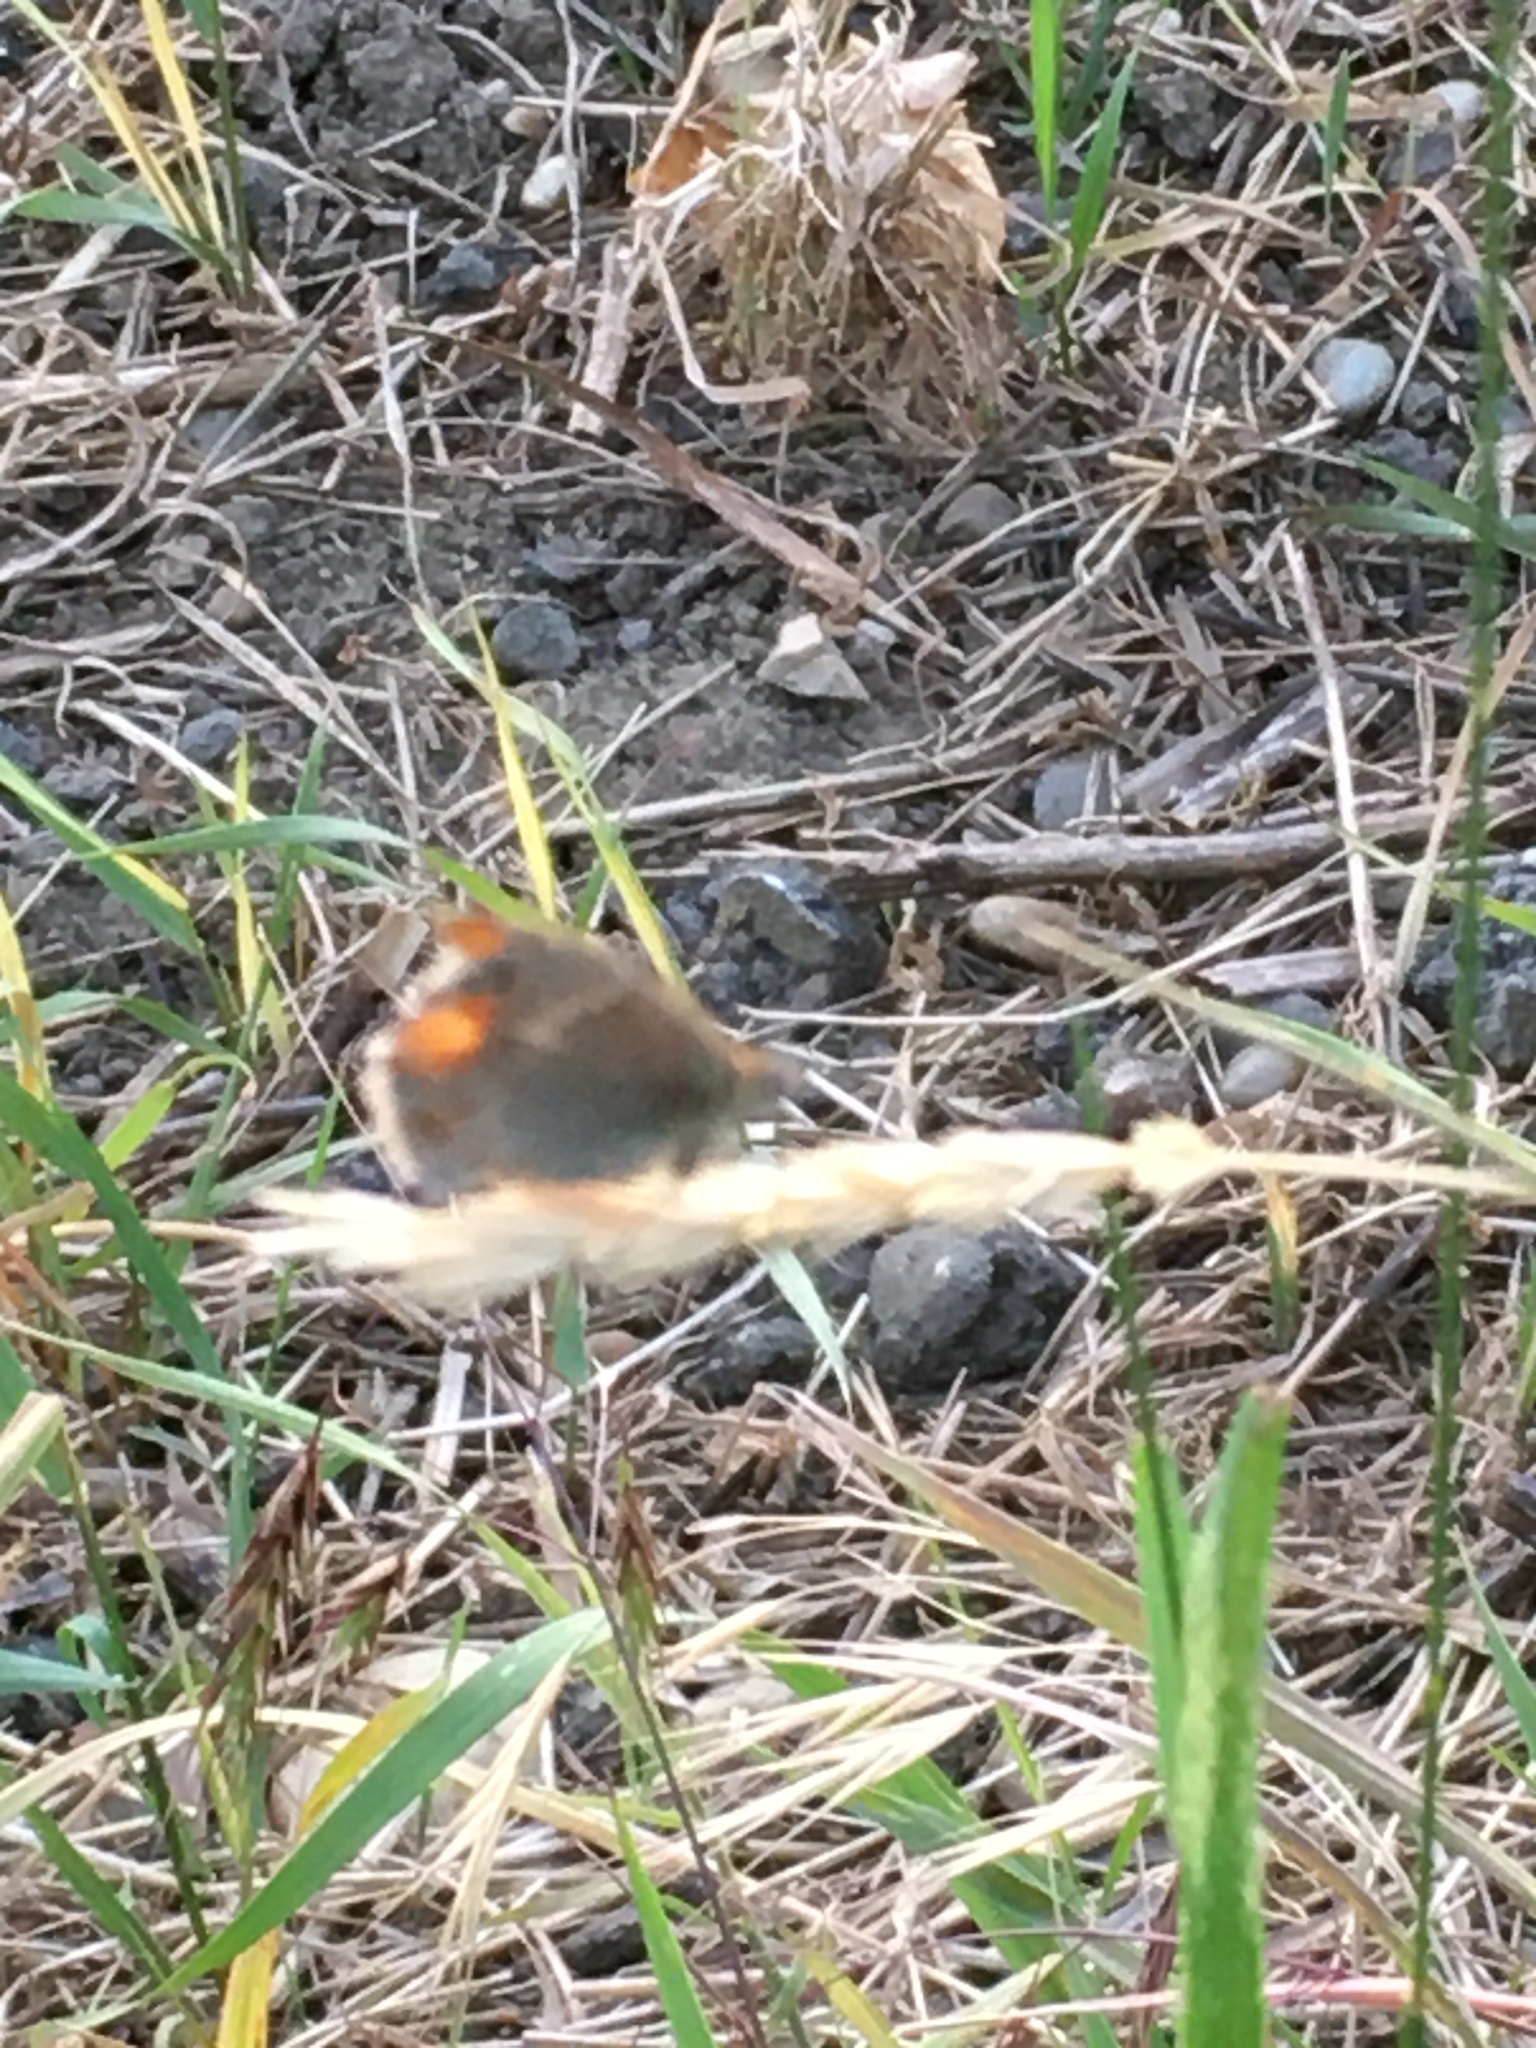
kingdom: Animalia
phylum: Arthropoda
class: Insecta
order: Lepidoptera
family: Nymphalidae
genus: Coenonympha
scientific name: Coenonympha pamphilus
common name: Small heath
